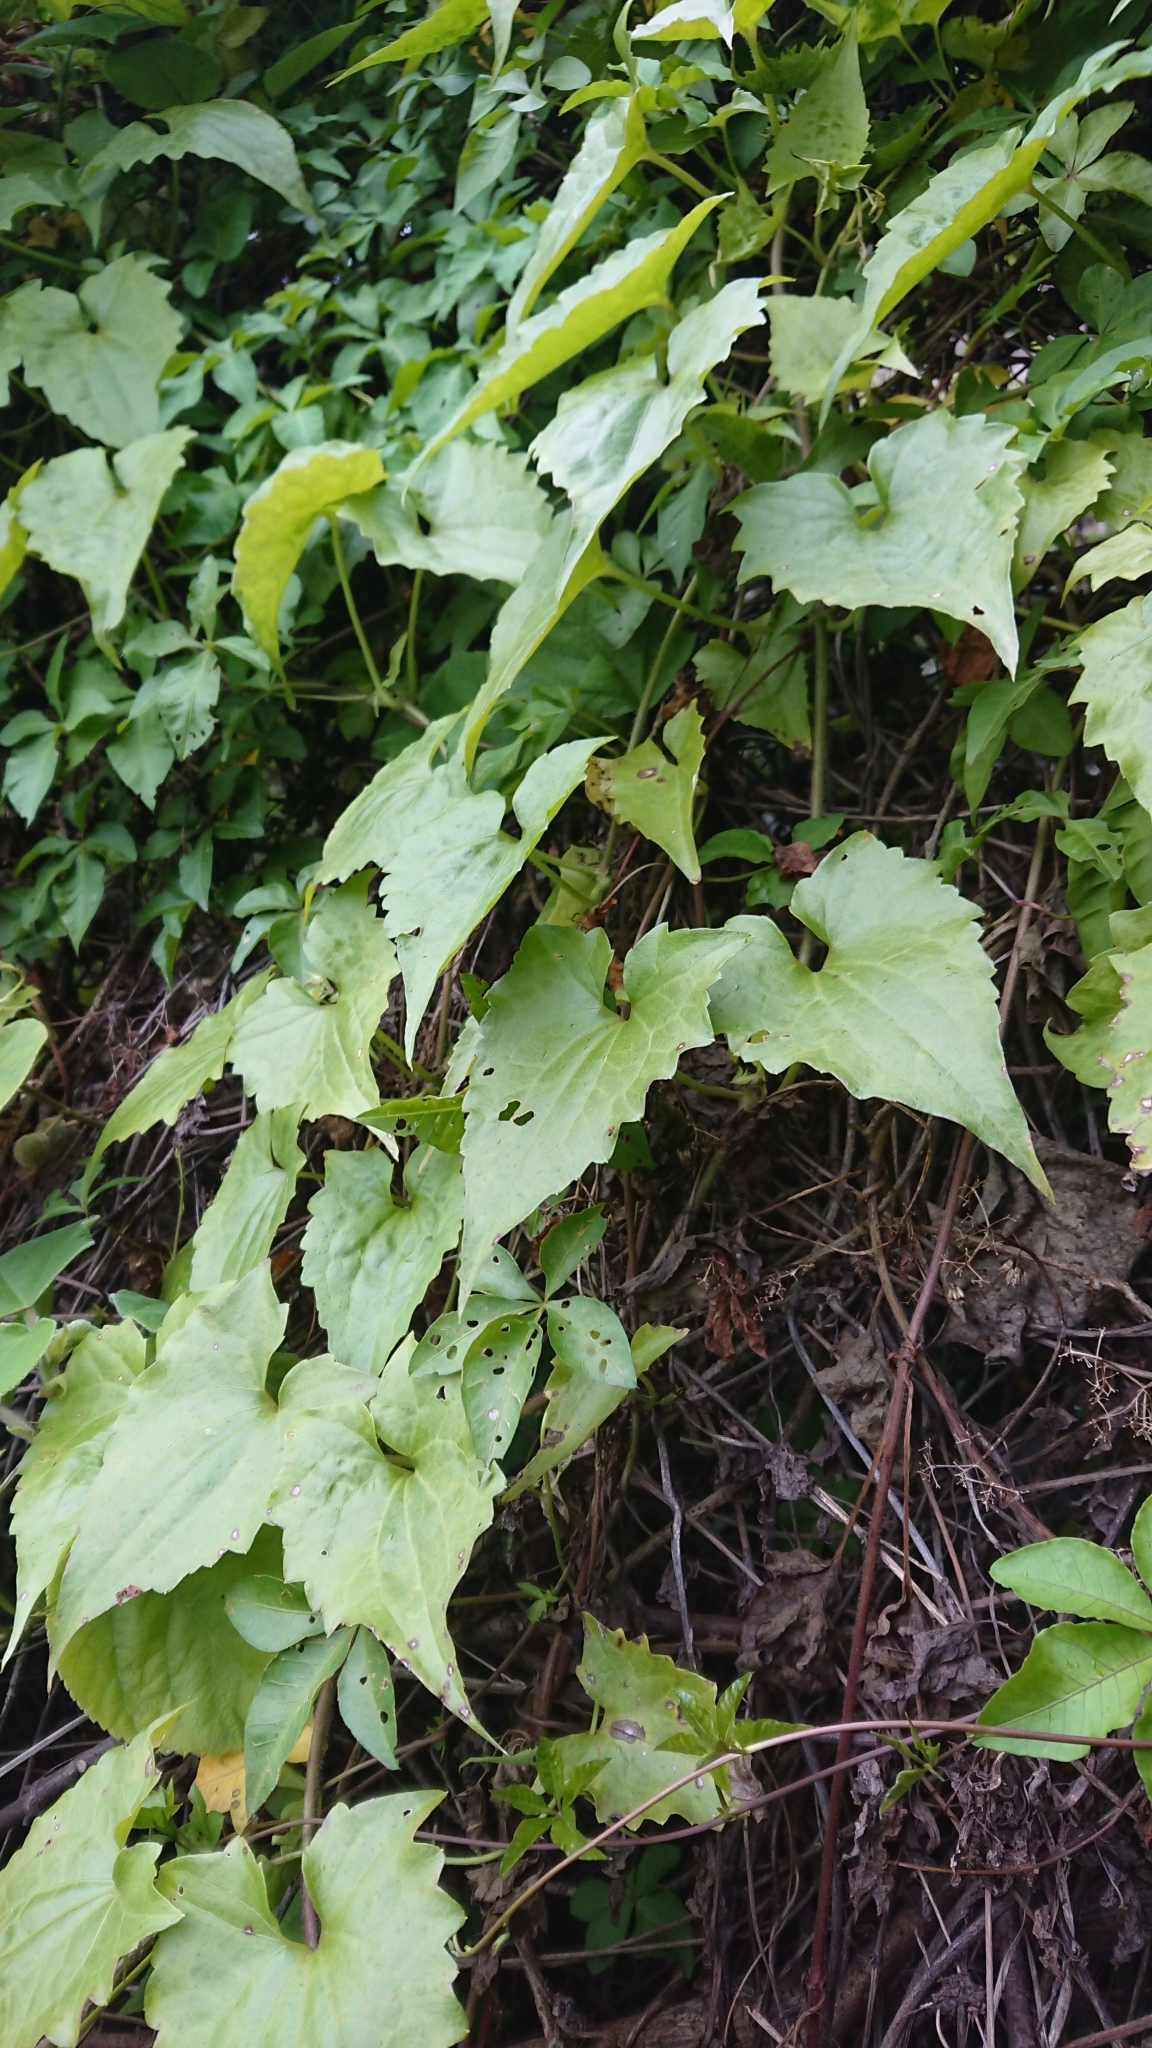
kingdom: Plantae
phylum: Tracheophyta
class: Magnoliopsida
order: Asterales
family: Asteraceae
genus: Mikania
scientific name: Mikania micrantha
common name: Mile-a-minute
